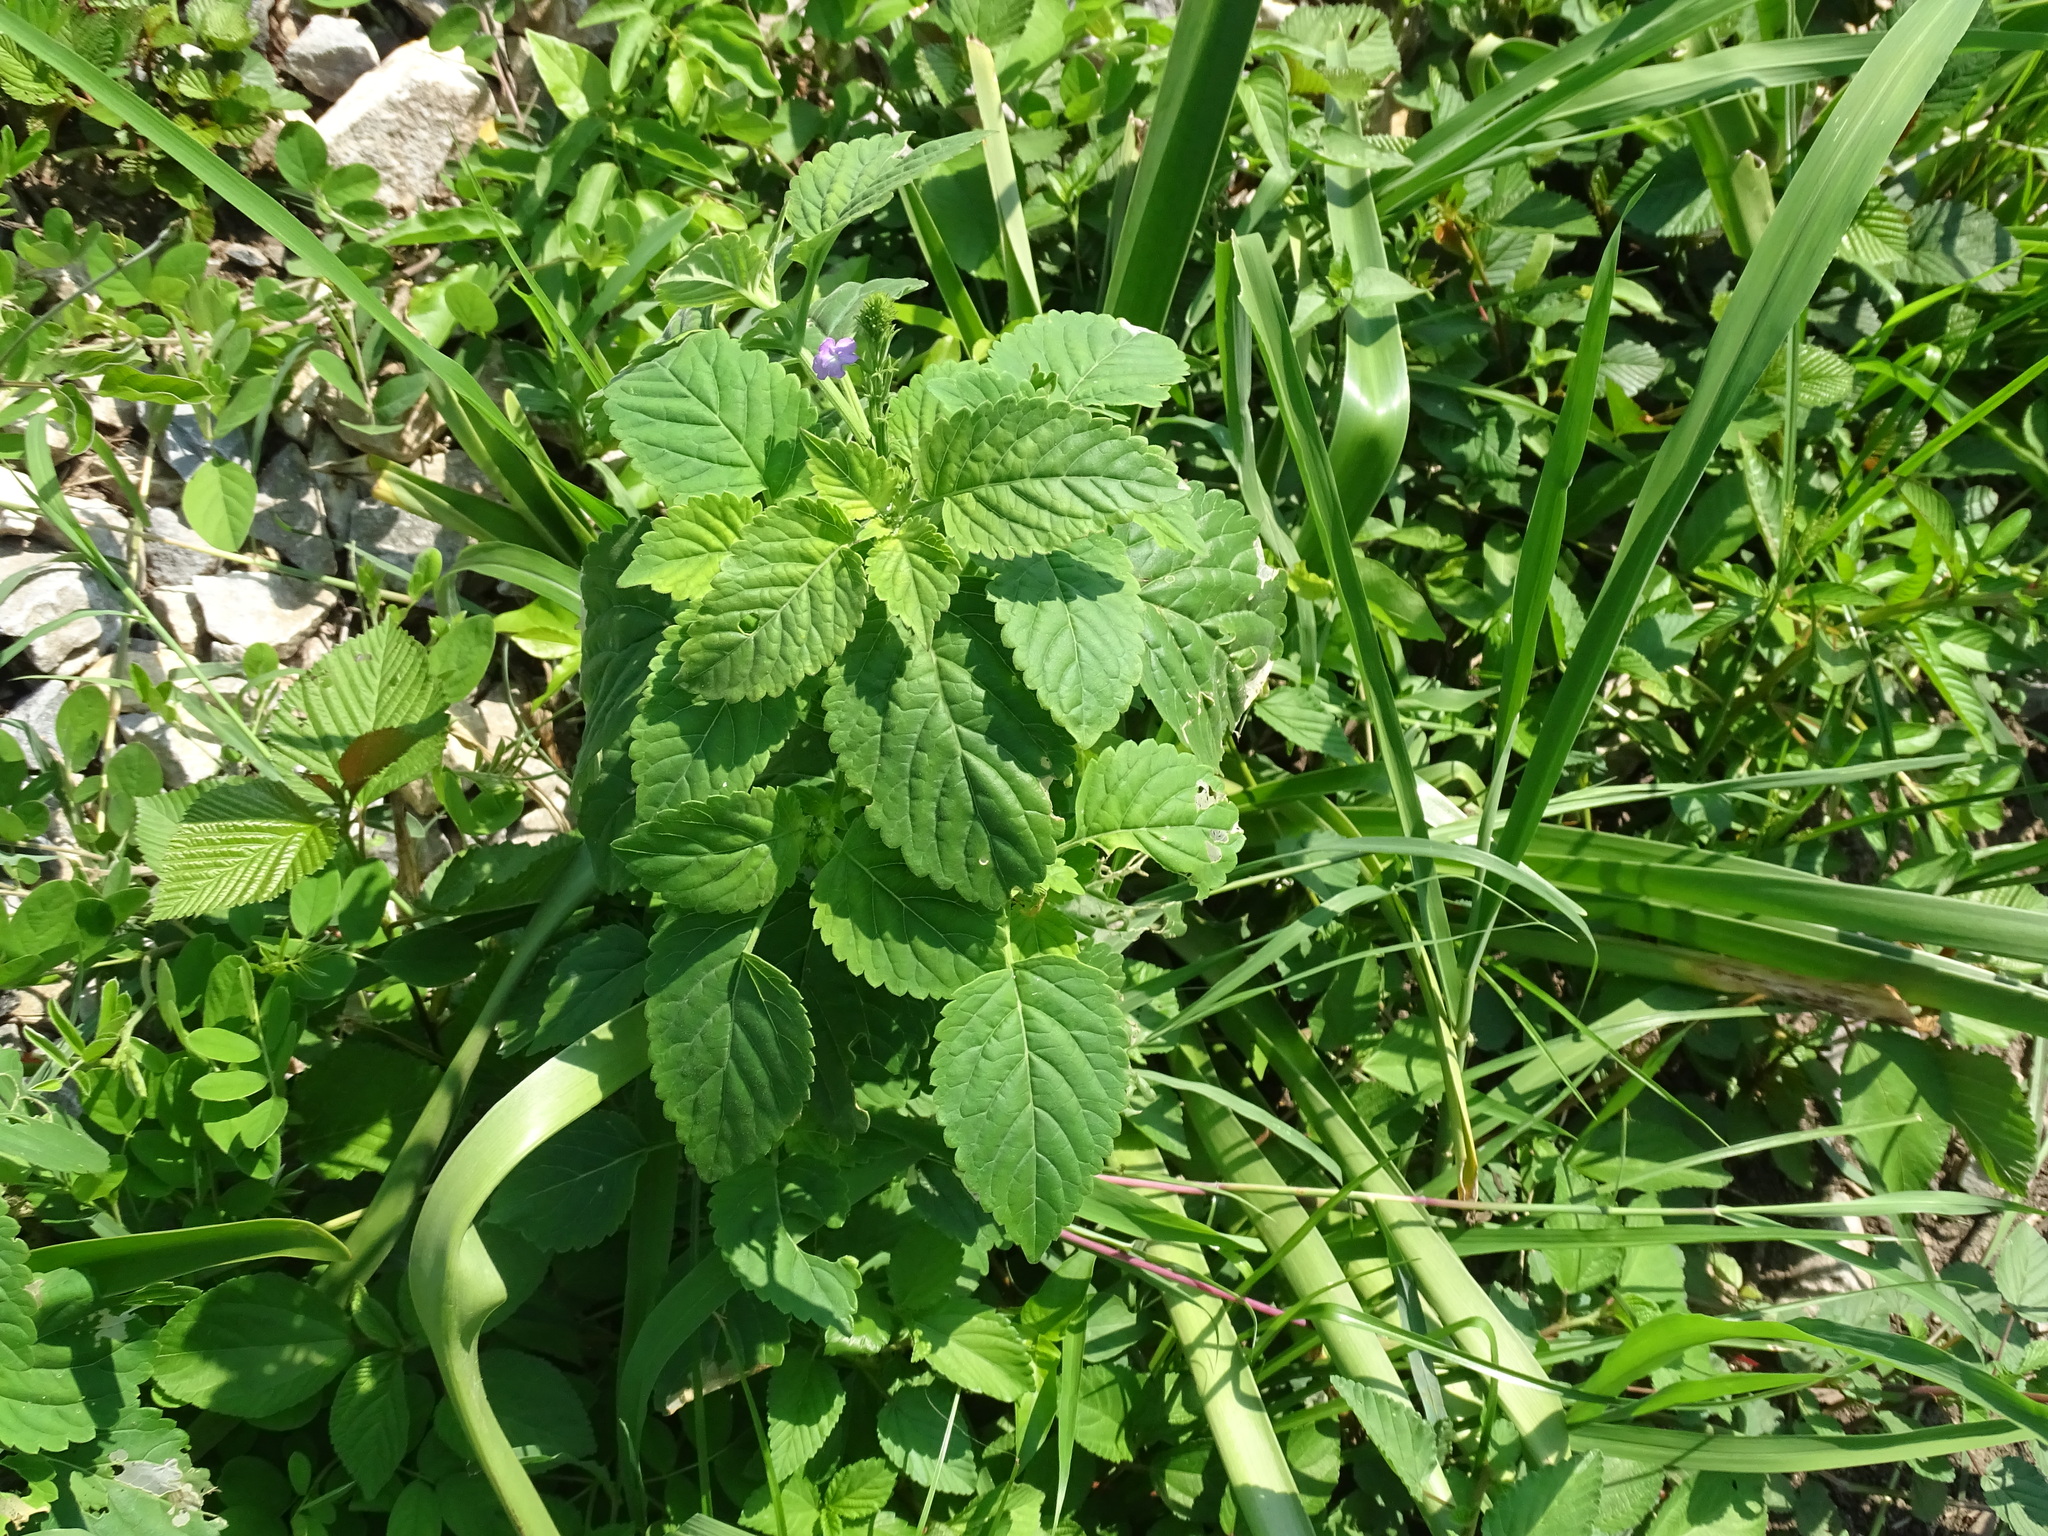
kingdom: Plantae
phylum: Tracheophyta
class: Magnoliopsida
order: Lamiales
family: Verbenaceae
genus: Bouchea
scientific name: Bouchea prismatica
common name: Vervine
